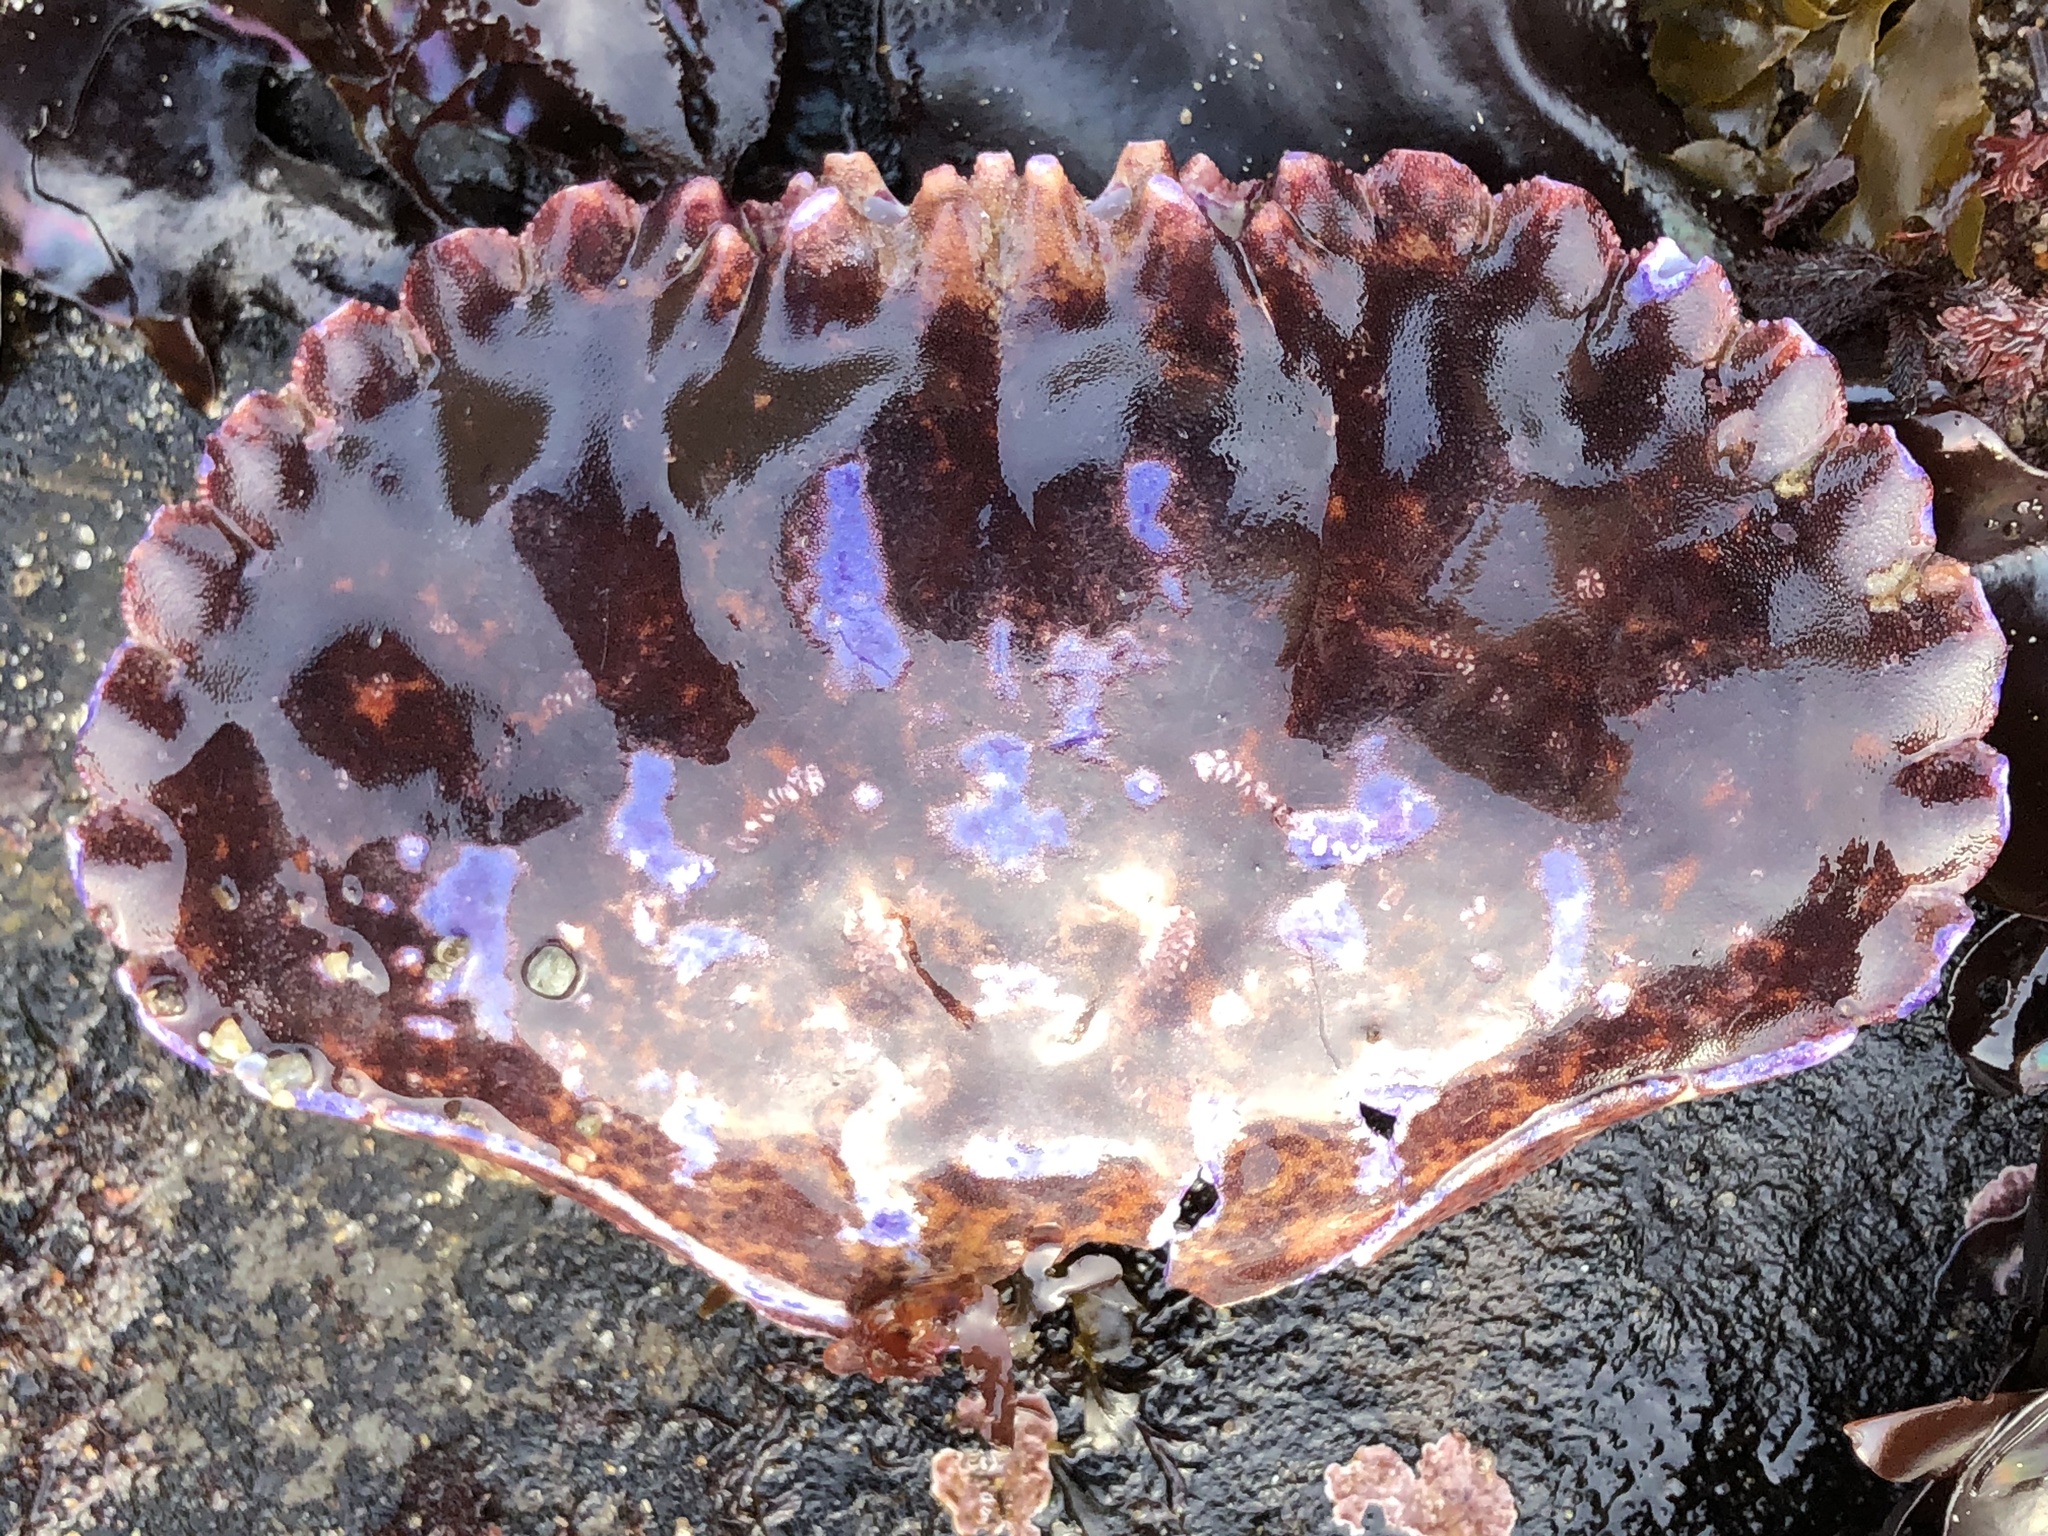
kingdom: Animalia
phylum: Arthropoda
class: Malacostraca
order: Decapoda
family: Cancridae
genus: Romaleon
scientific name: Romaleon antennarium
